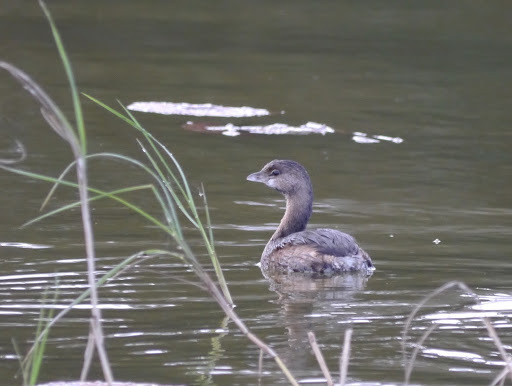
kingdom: Animalia
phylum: Chordata
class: Aves
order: Podicipediformes
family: Podicipedidae
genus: Podilymbus
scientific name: Podilymbus podiceps
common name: Pied-billed grebe
